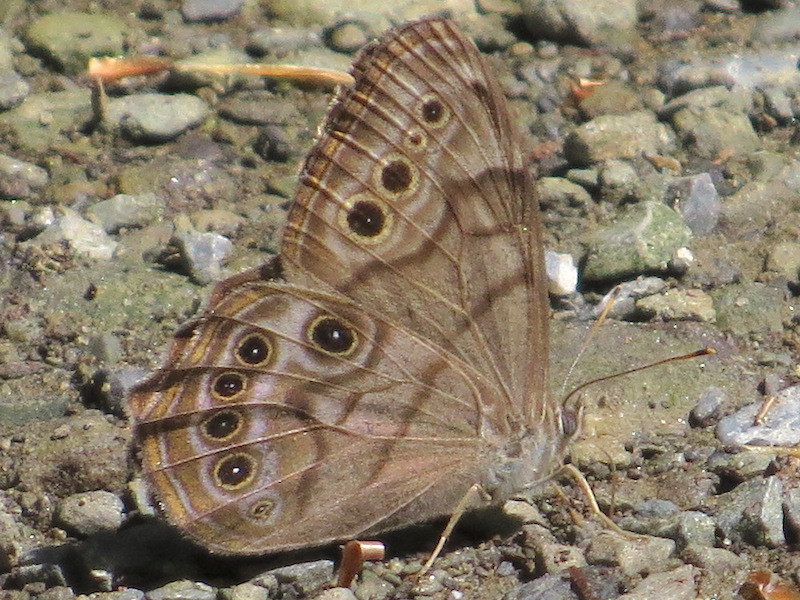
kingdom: Animalia
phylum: Arthropoda
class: Insecta
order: Lepidoptera
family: Nymphalidae
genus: Lethe
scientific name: Lethe anthedon
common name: Northern pearly-eye
